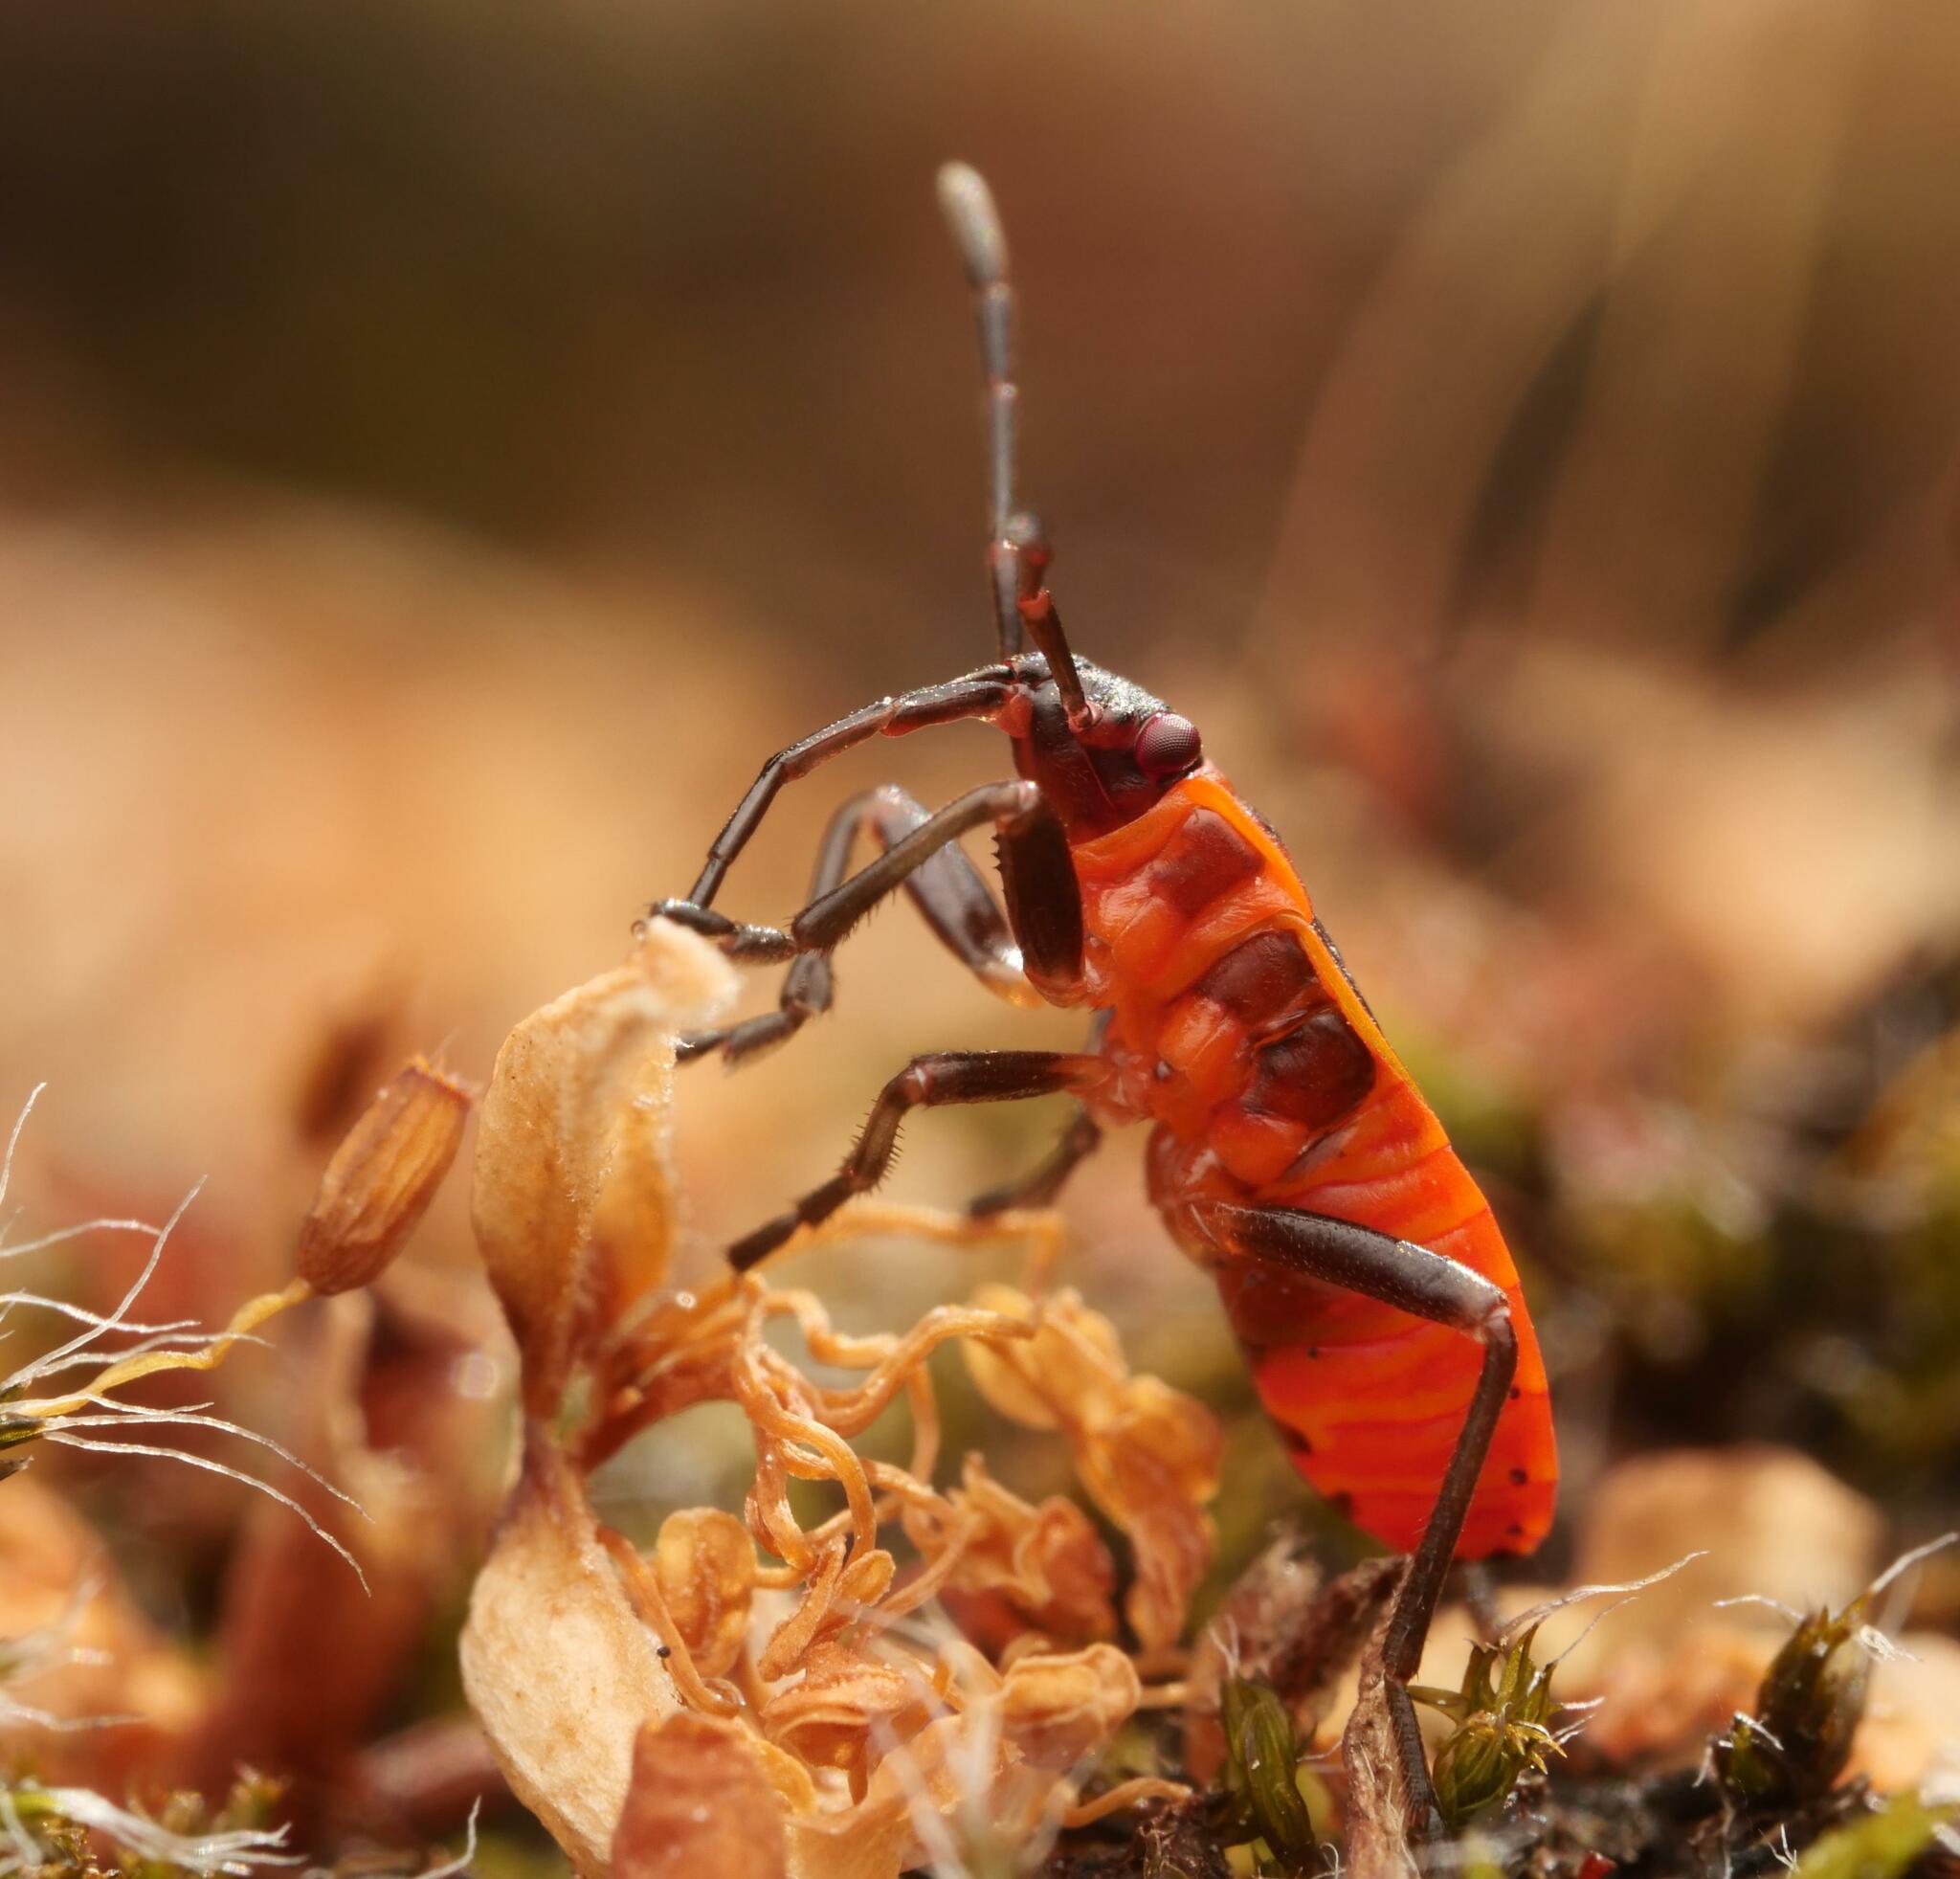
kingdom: Animalia
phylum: Arthropoda
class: Insecta
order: Hemiptera
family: Pyrrhocoridae
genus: Pyrrhocoris
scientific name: Pyrrhocoris apterus
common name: Firebug
